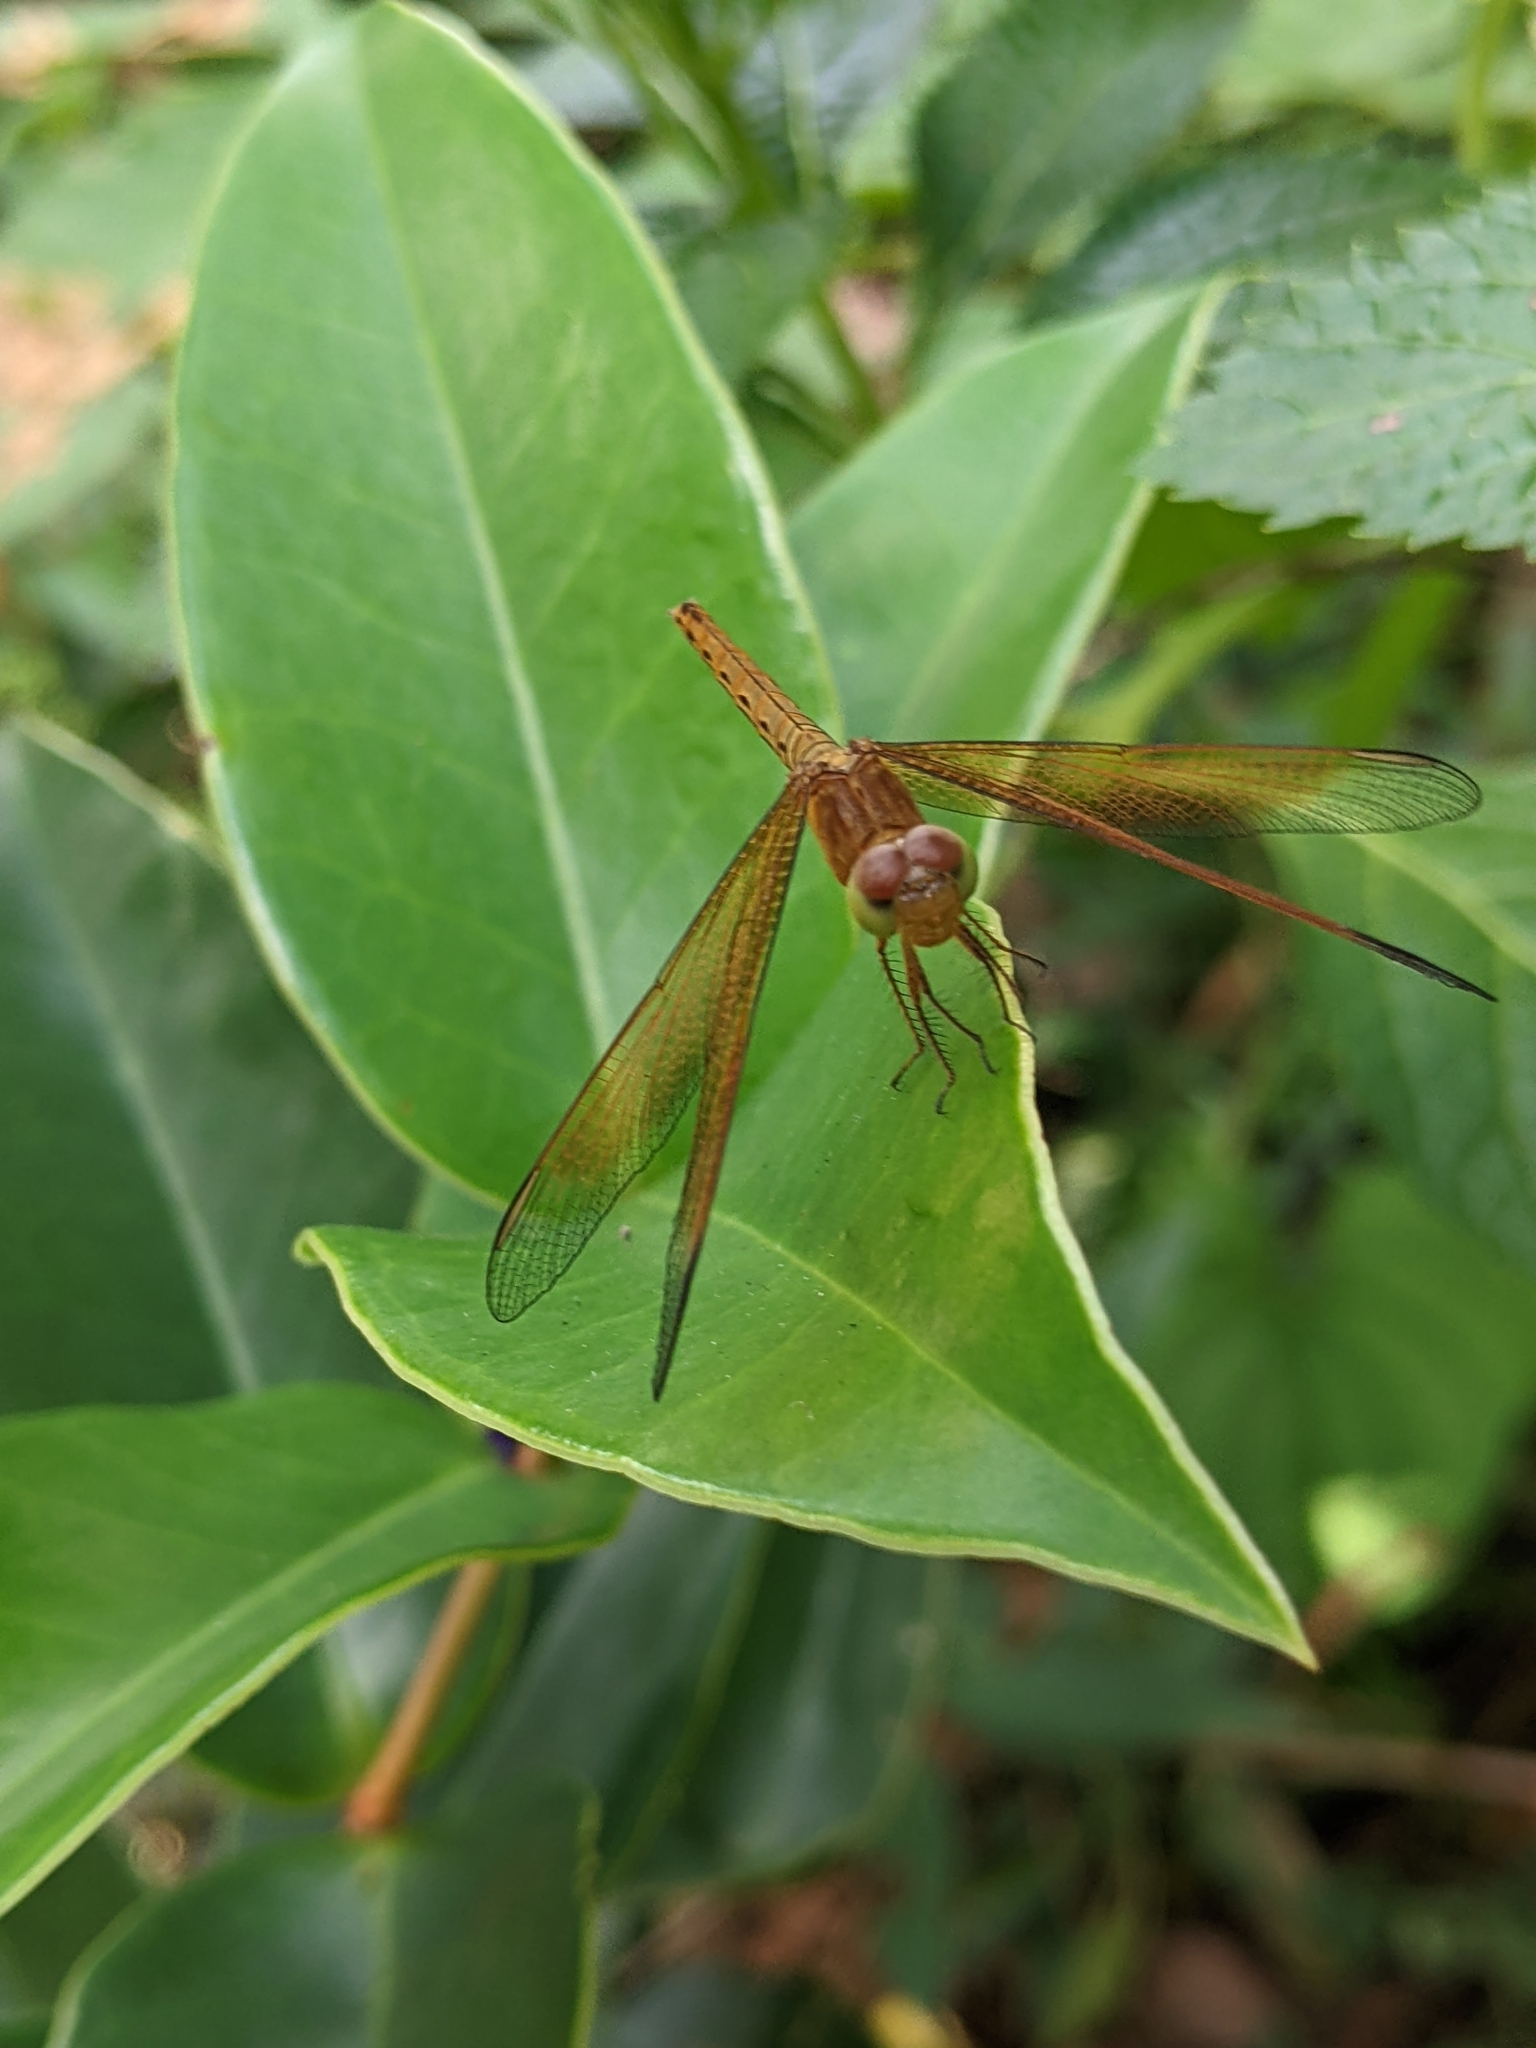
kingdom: Animalia
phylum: Arthropoda
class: Insecta
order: Odonata
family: Libellulidae
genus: Neurothemis
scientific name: Neurothemis fluctuans
